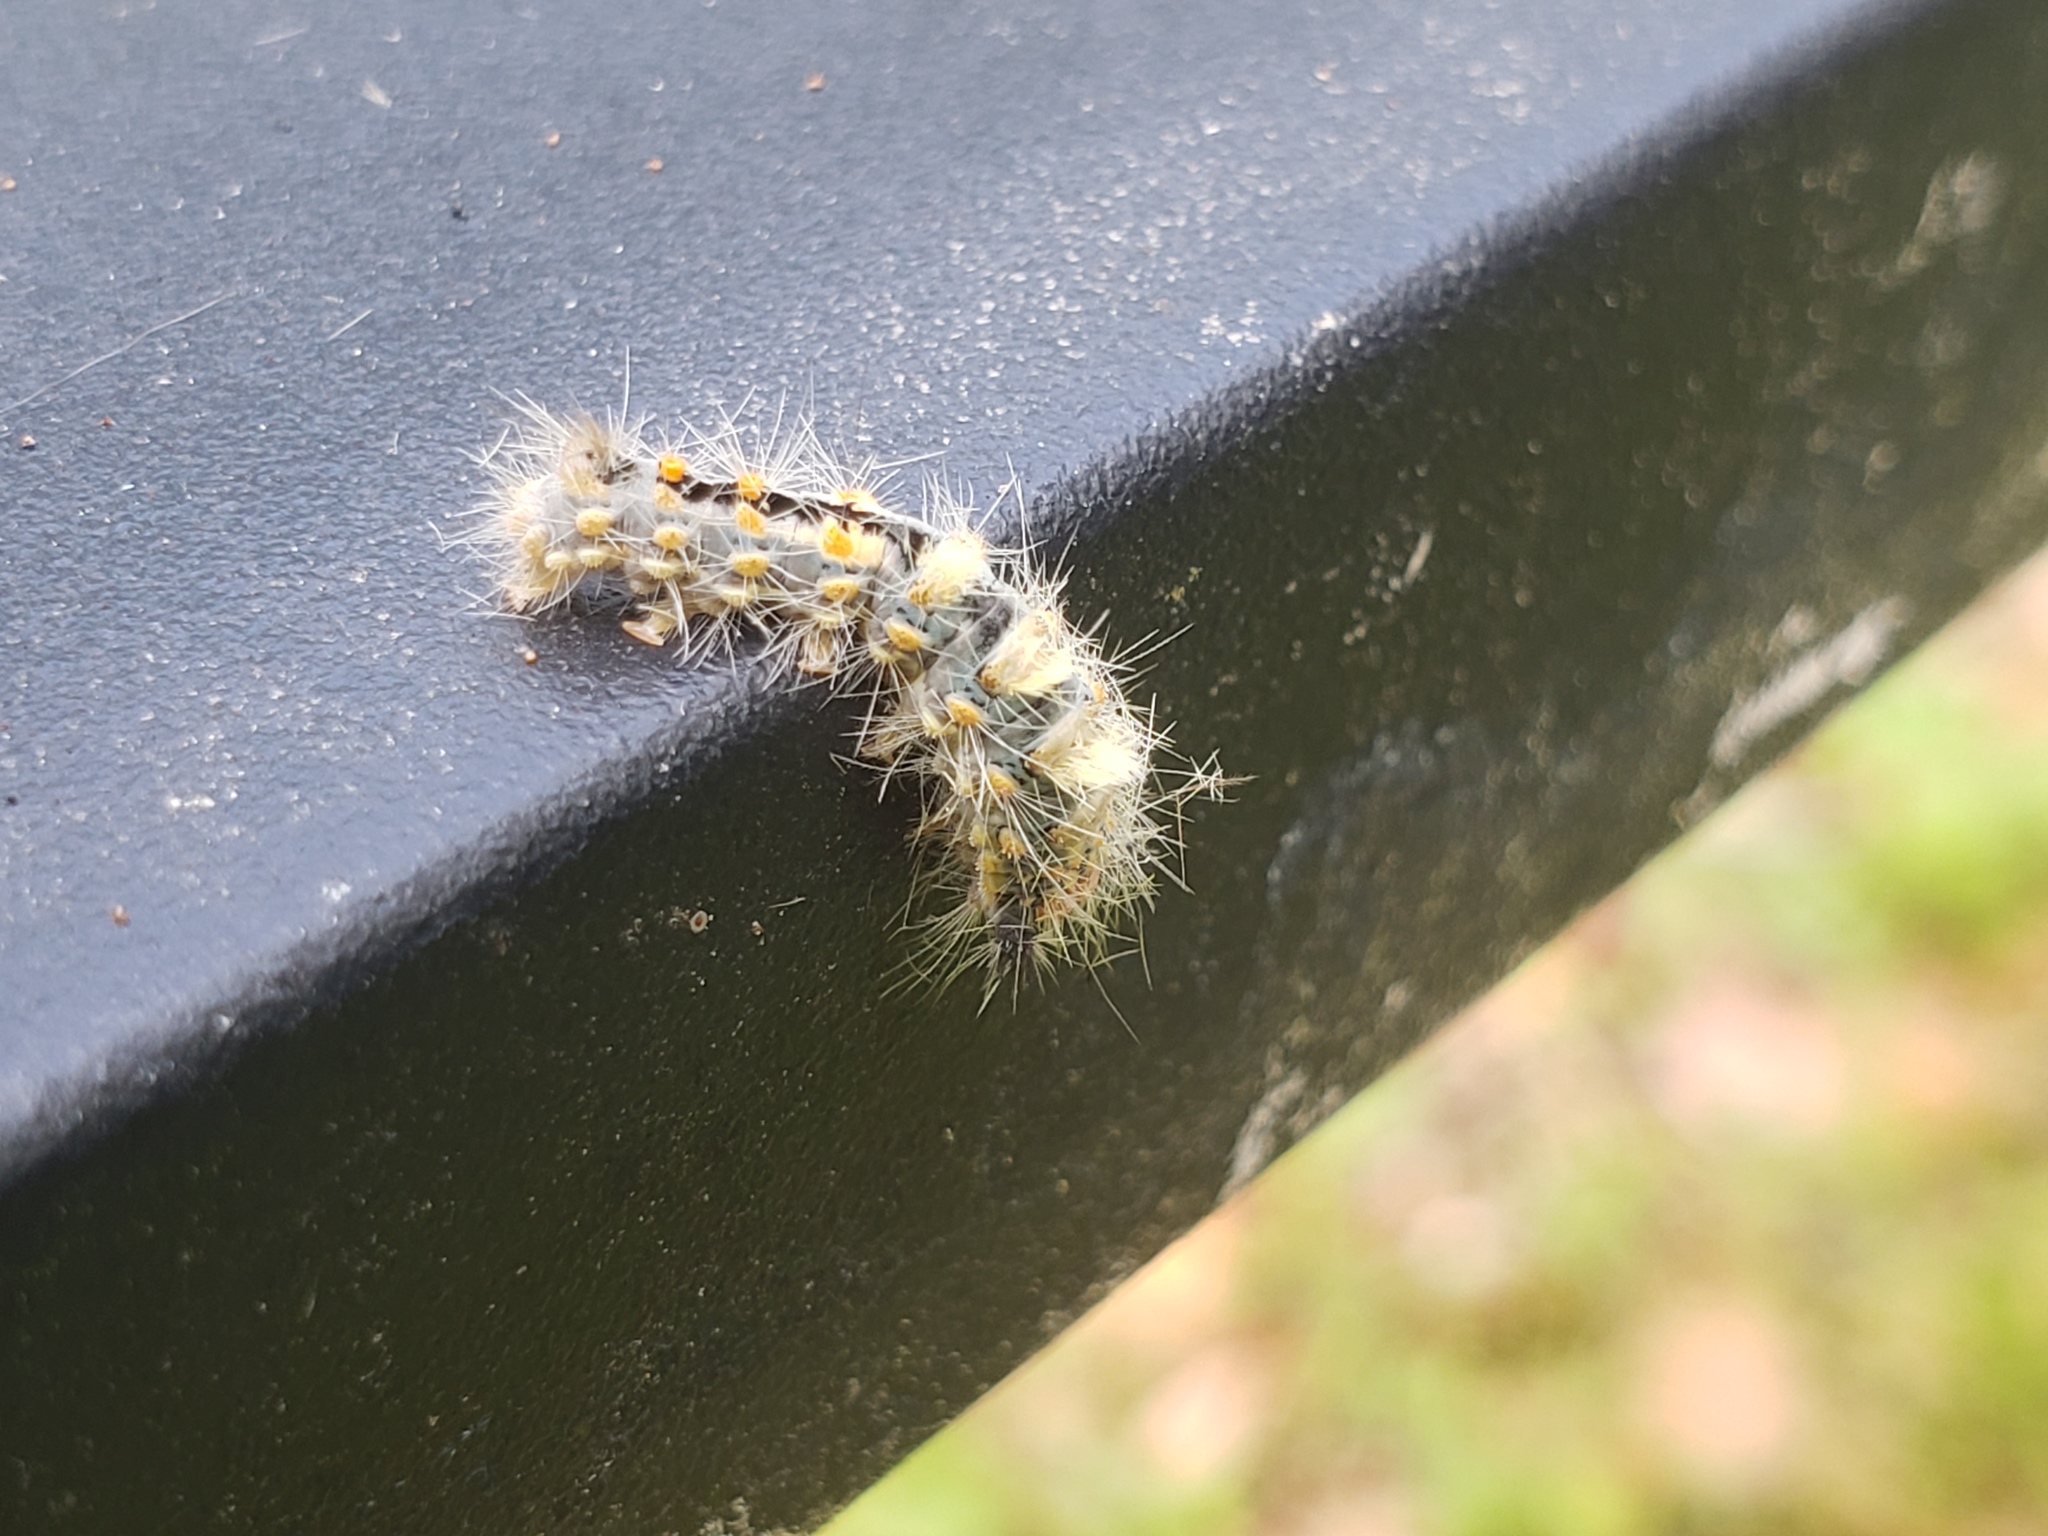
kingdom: Animalia
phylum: Arthropoda
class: Insecta
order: Lepidoptera
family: Erebidae
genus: Orgyia
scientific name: Orgyia detrita
